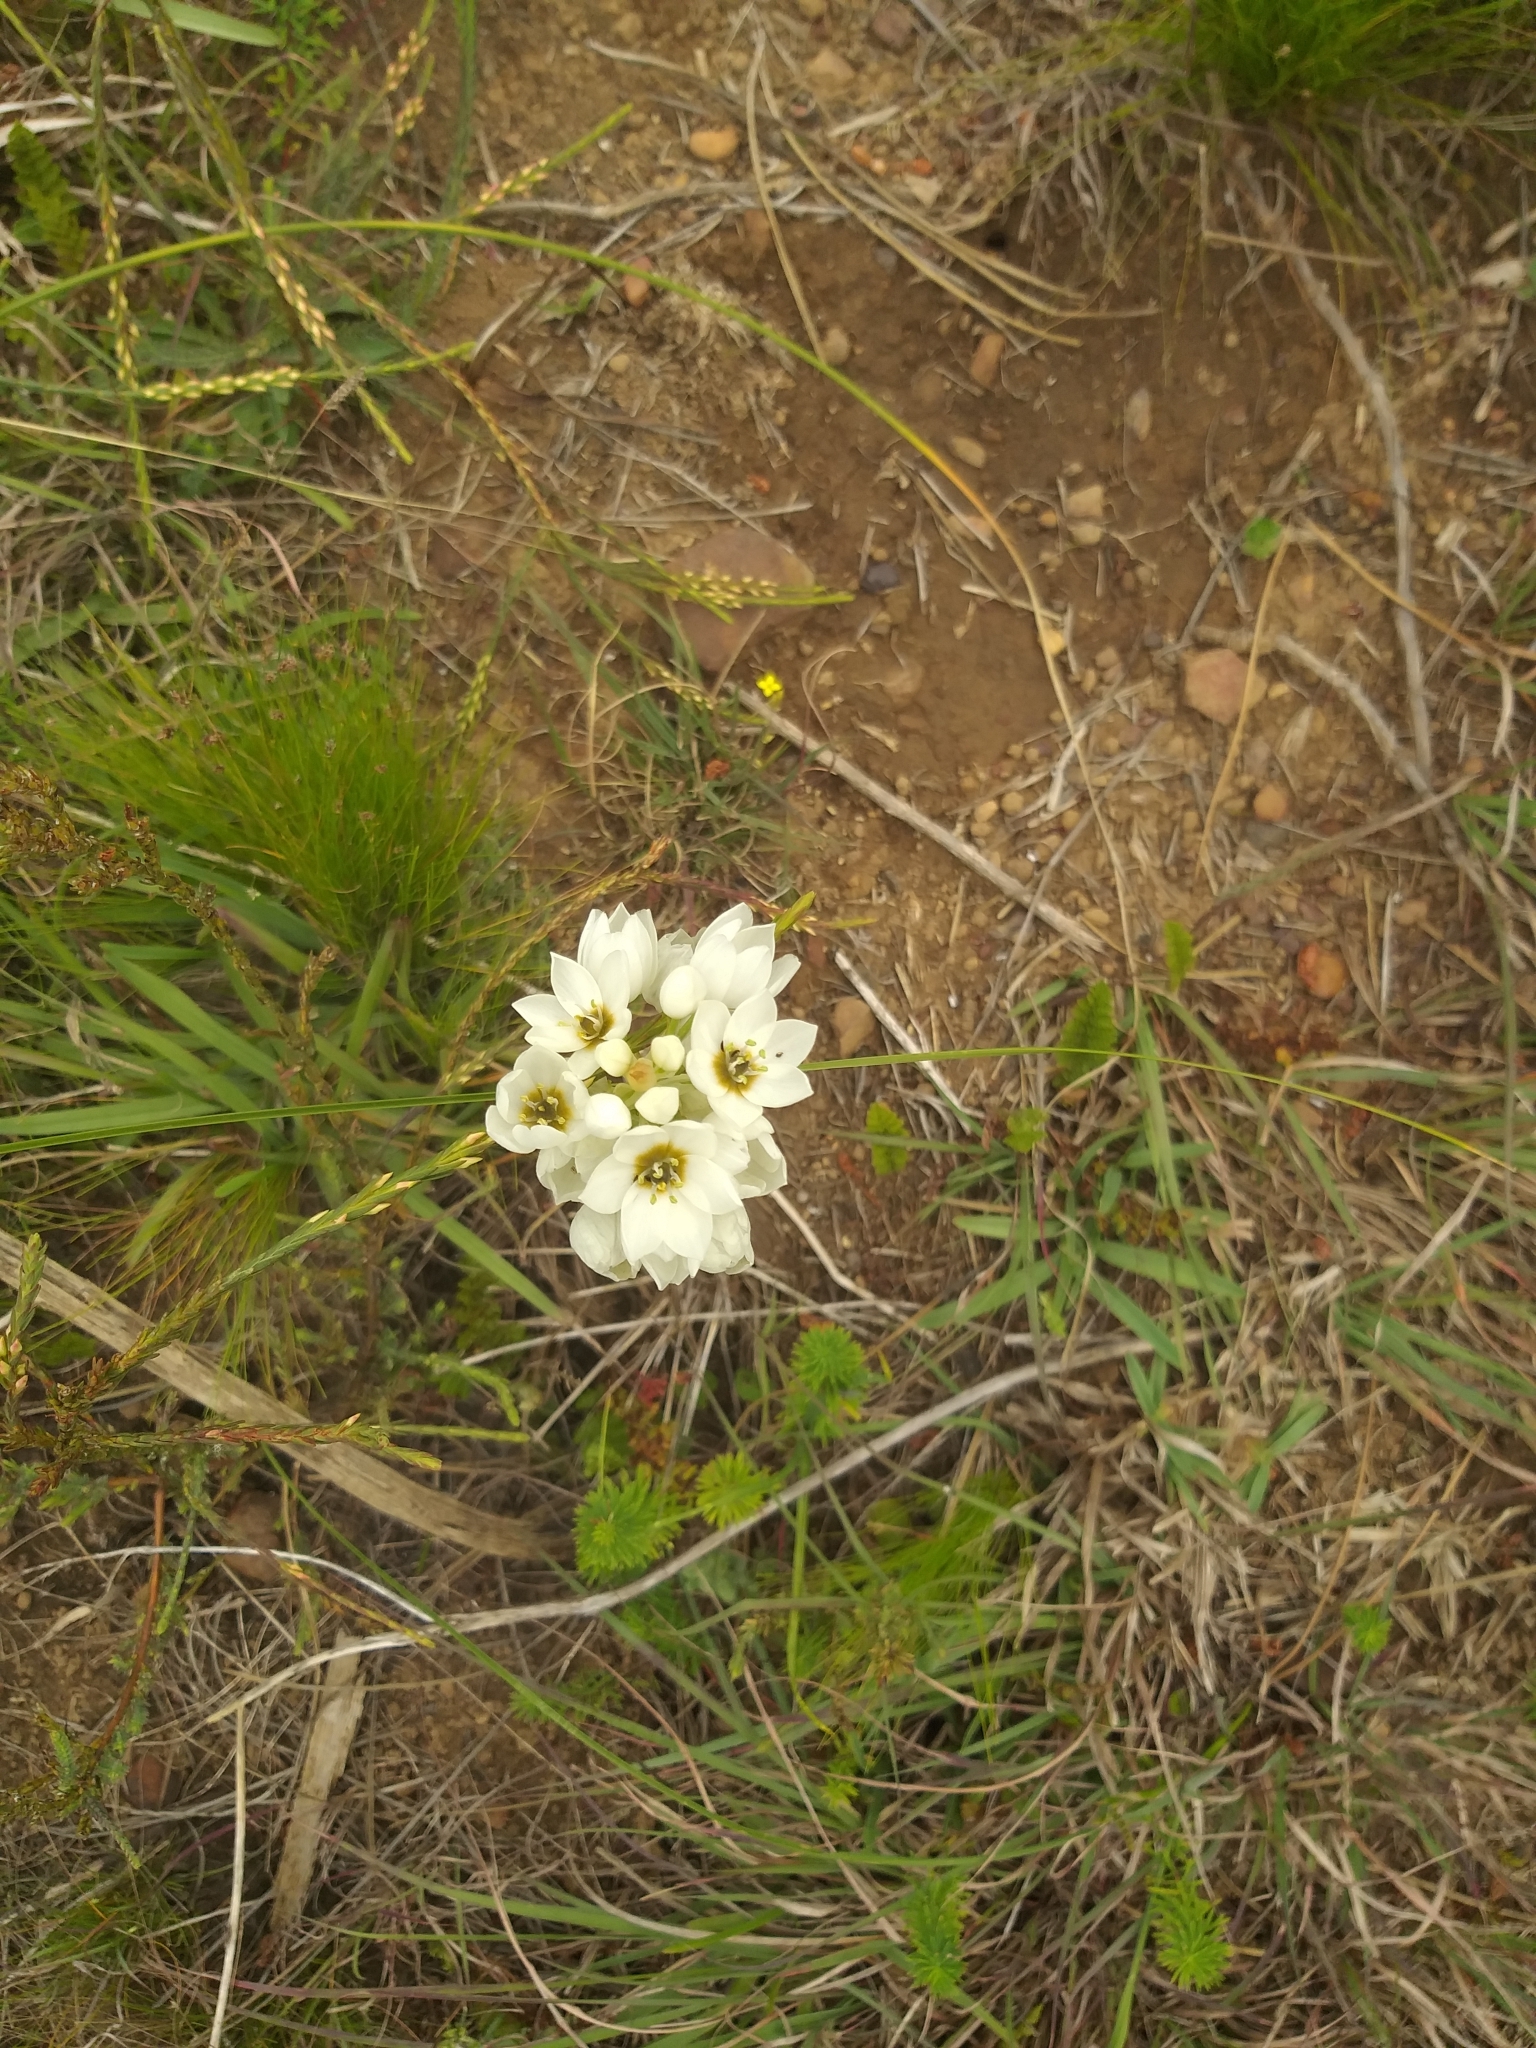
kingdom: Plantae
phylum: Tracheophyta
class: Liliopsida
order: Asparagales
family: Asparagaceae
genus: Ornithogalum
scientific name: Ornithogalum thyrsoides
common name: Chincherinchee
